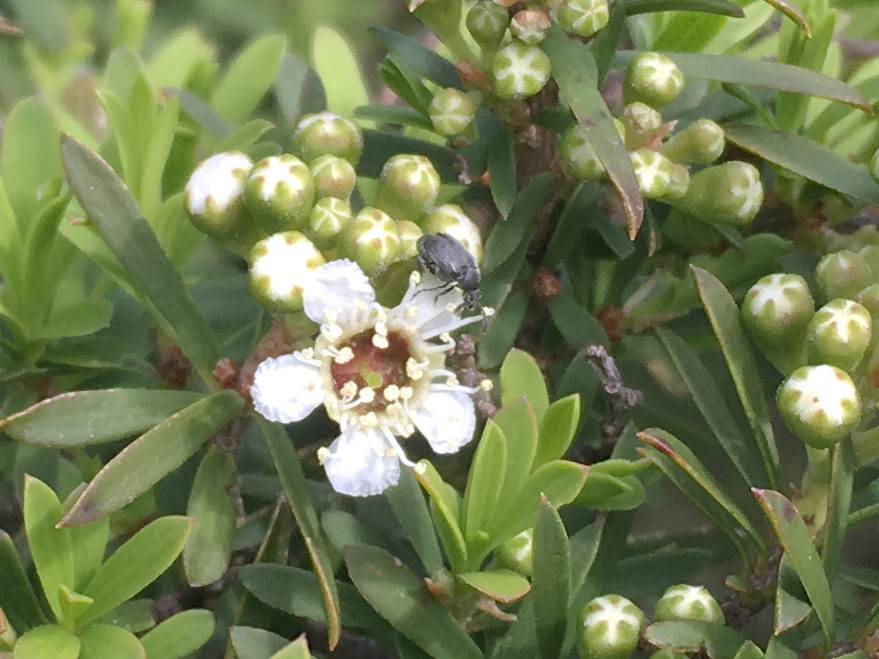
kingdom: Animalia
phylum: Arthropoda
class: Insecta
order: Coleoptera
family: Chrysomelidae
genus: Bruchidius
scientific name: Bruchidius villosus
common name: Scotch broom bruchid
